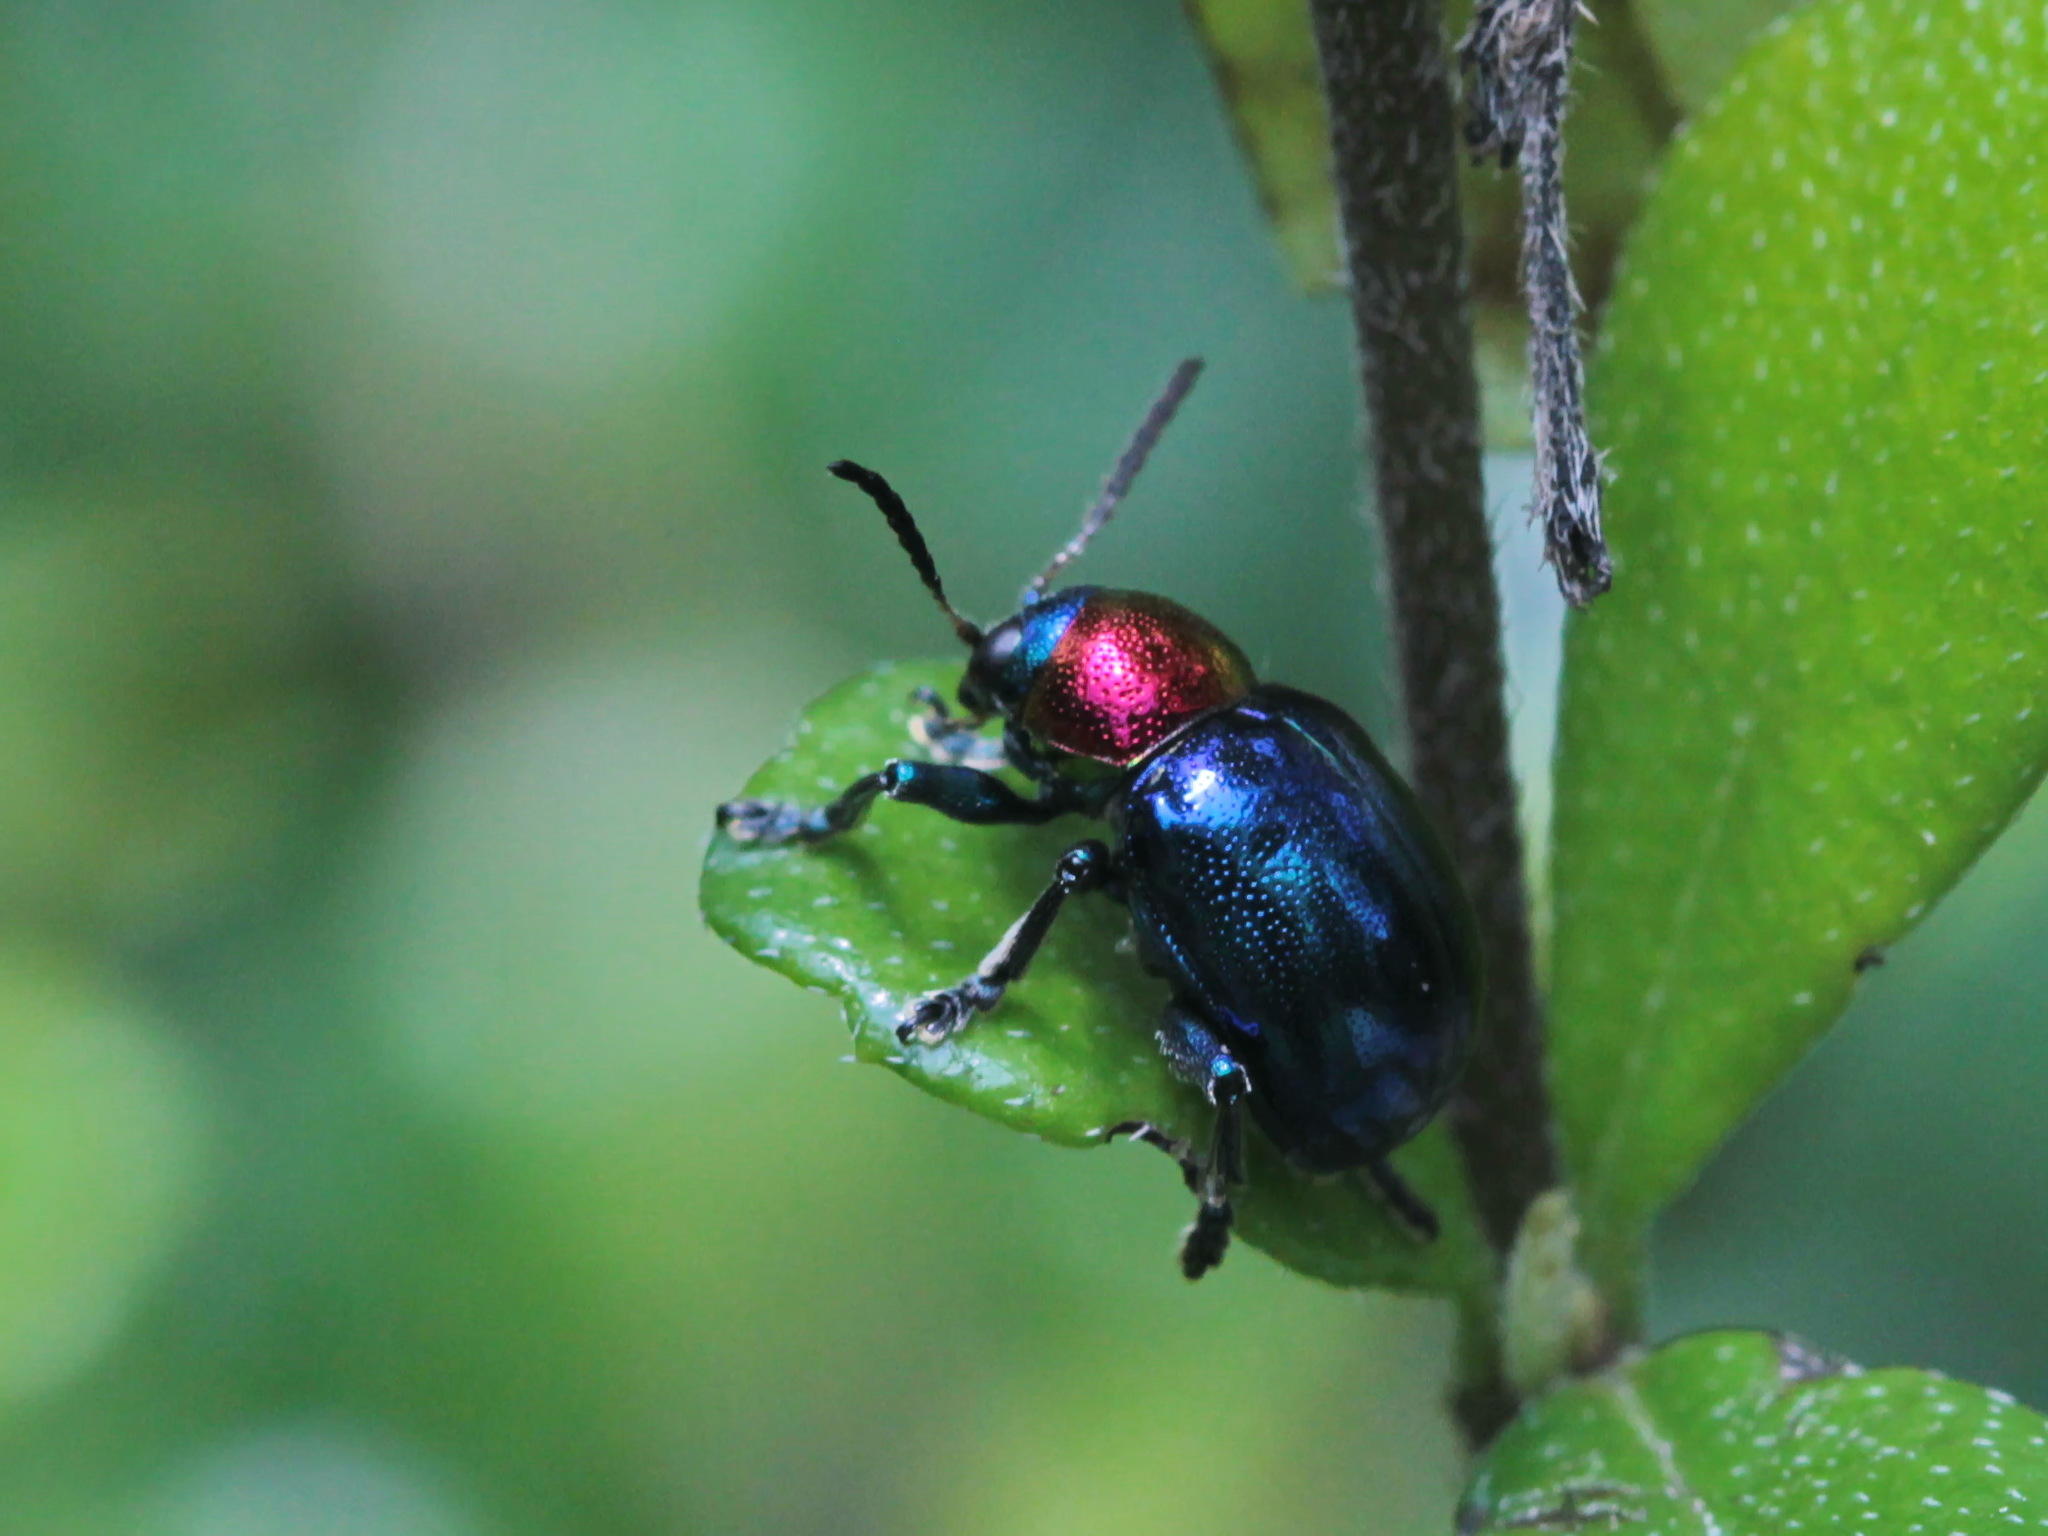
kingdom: Animalia
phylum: Arthropoda
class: Insecta
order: Coleoptera
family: Chrysomelidae
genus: Parheminodes
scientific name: Parheminodes
